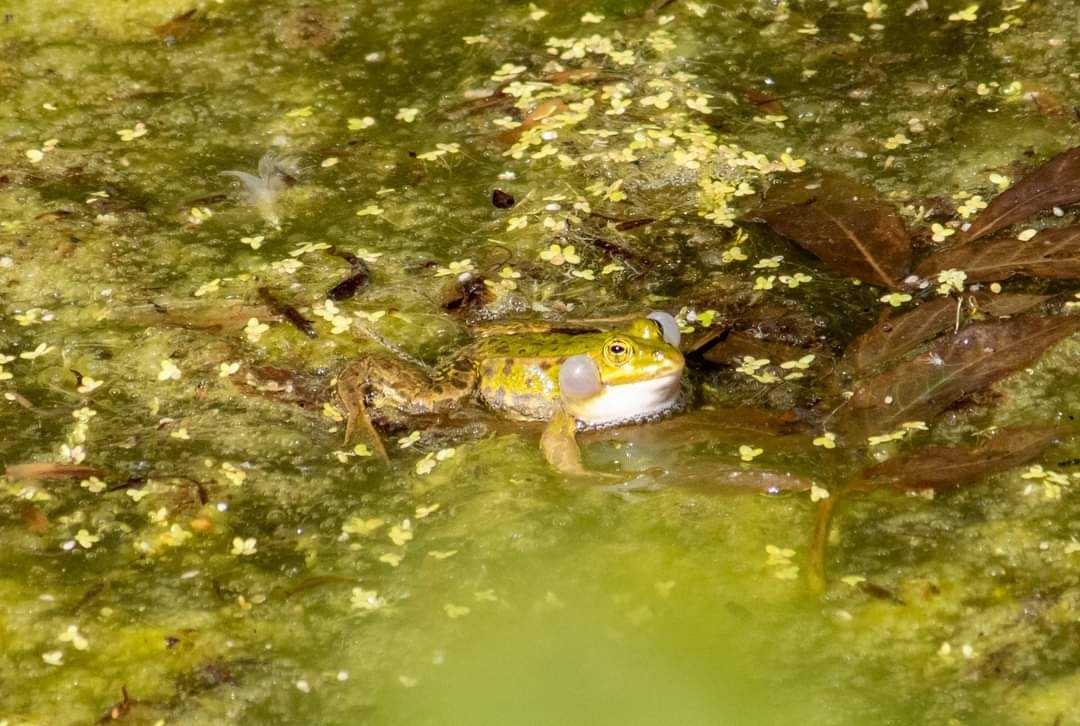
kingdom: Animalia
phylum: Chordata
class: Amphibia
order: Anura
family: Ranidae
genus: Pelophylax
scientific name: Pelophylax lessonae
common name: Pool frog
